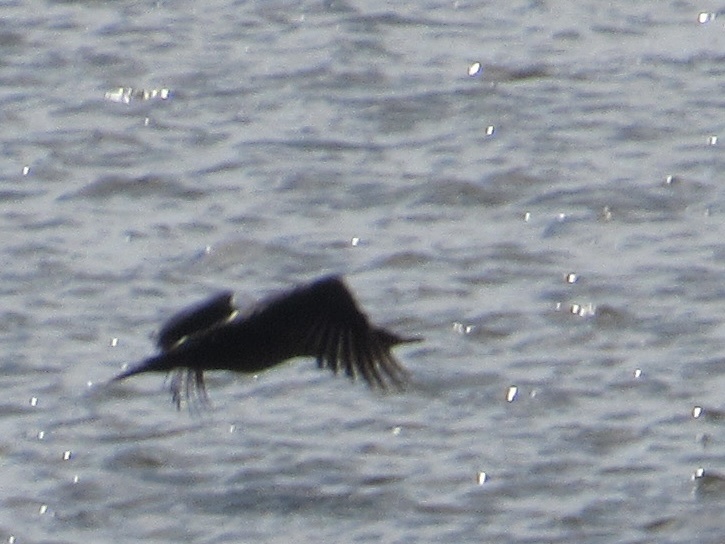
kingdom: Animalia
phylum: Chordata
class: Aves
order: Suliformes
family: Phalacrocoracidae
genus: Phalacrocorax
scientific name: Phalacrocorax auritus
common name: Double-crested cormorant
